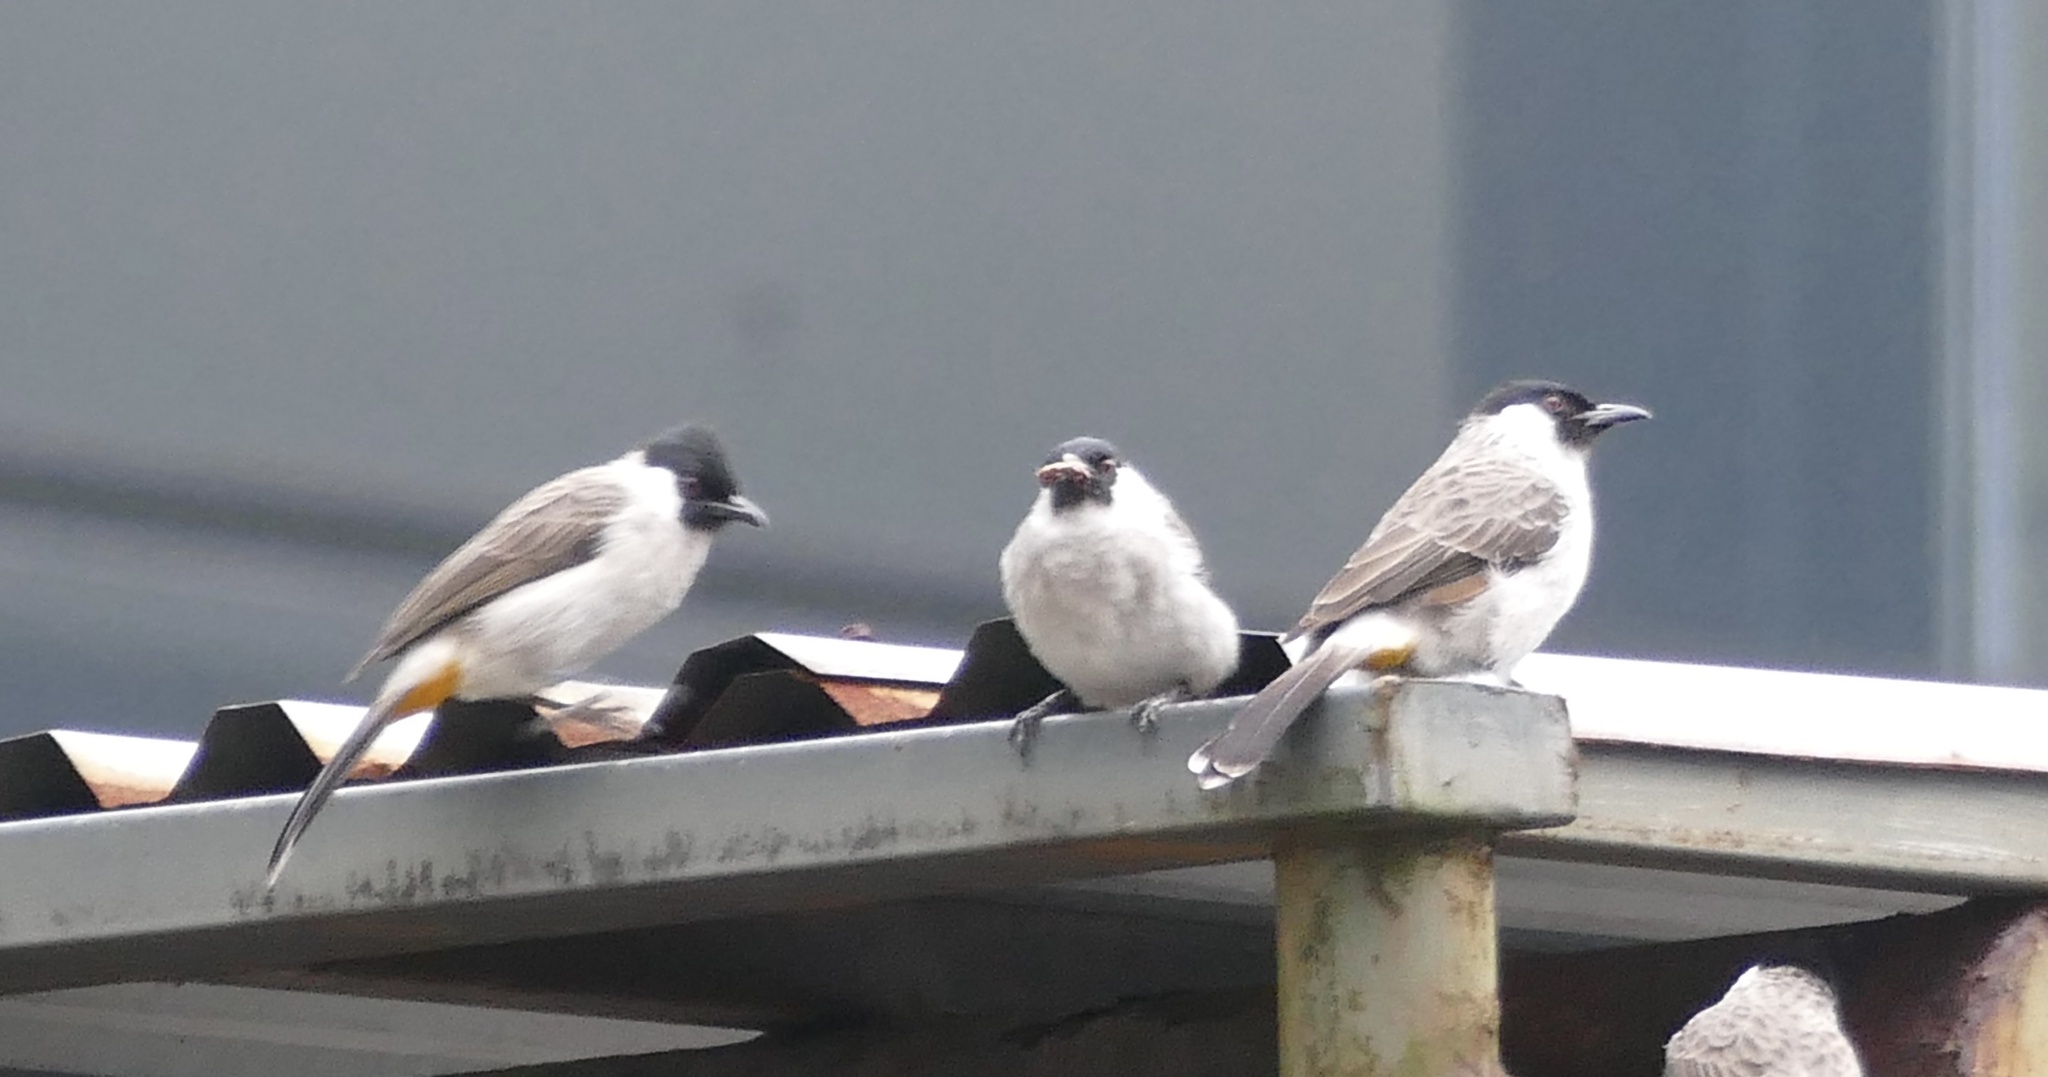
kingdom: Animalia
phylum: Chordata
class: Aves
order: Passeriformes
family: Pycnonotidae
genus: Pycnonotus
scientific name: Pycnonotus aurigaster
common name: Sooty-headed bulbul
